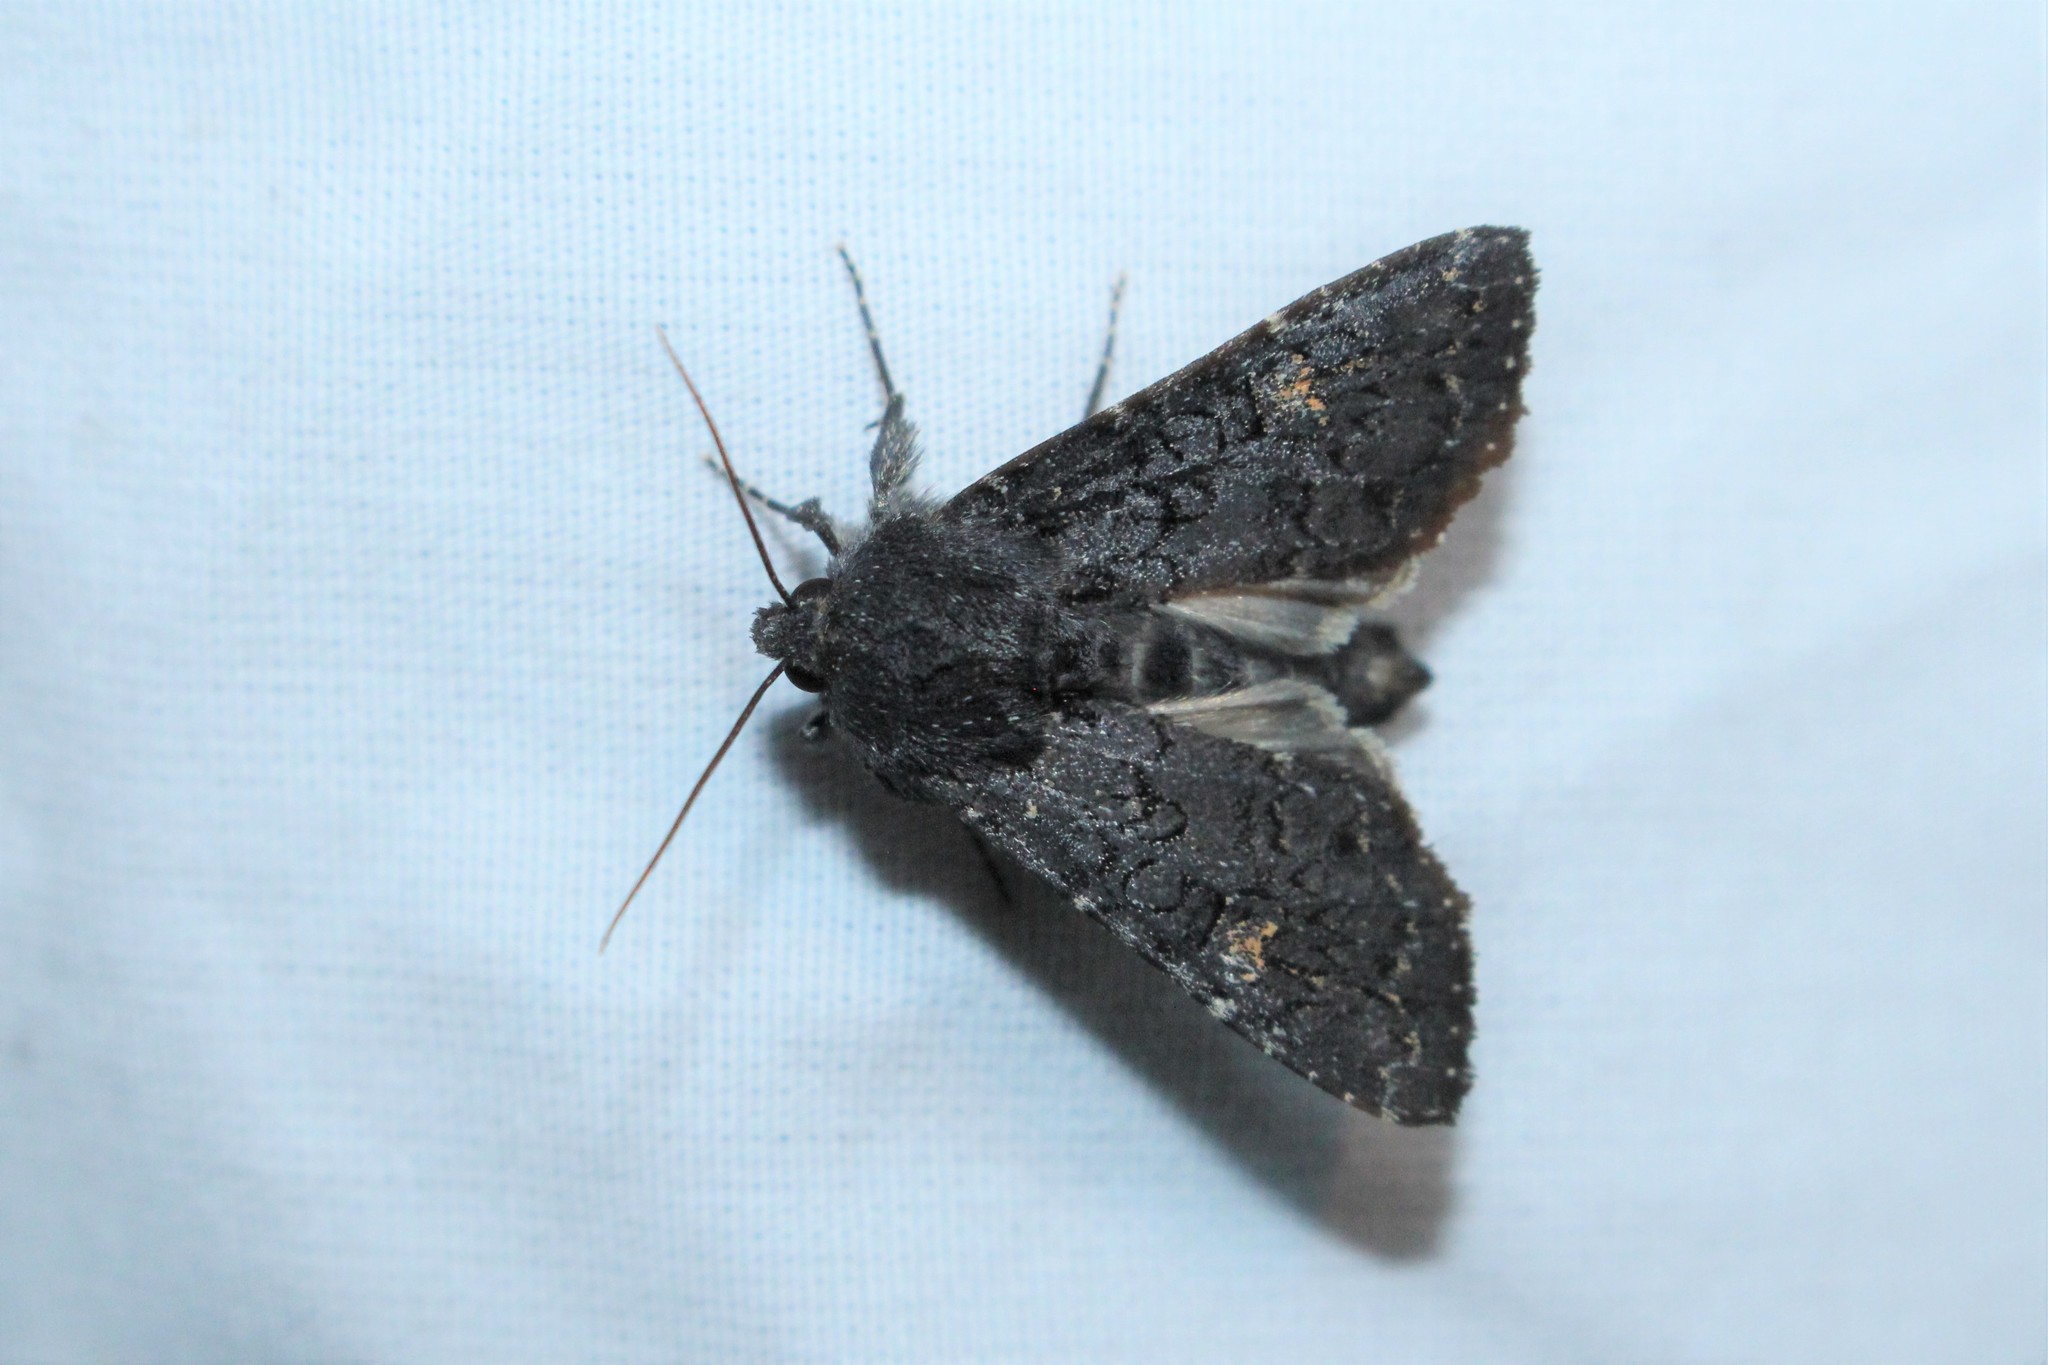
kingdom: Animalia
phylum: Arthropoda
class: Insecta
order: Lepidoptera
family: Noctuidae
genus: Melanapamea
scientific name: Melanapamea mixta
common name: Coastal plain apamea moth
